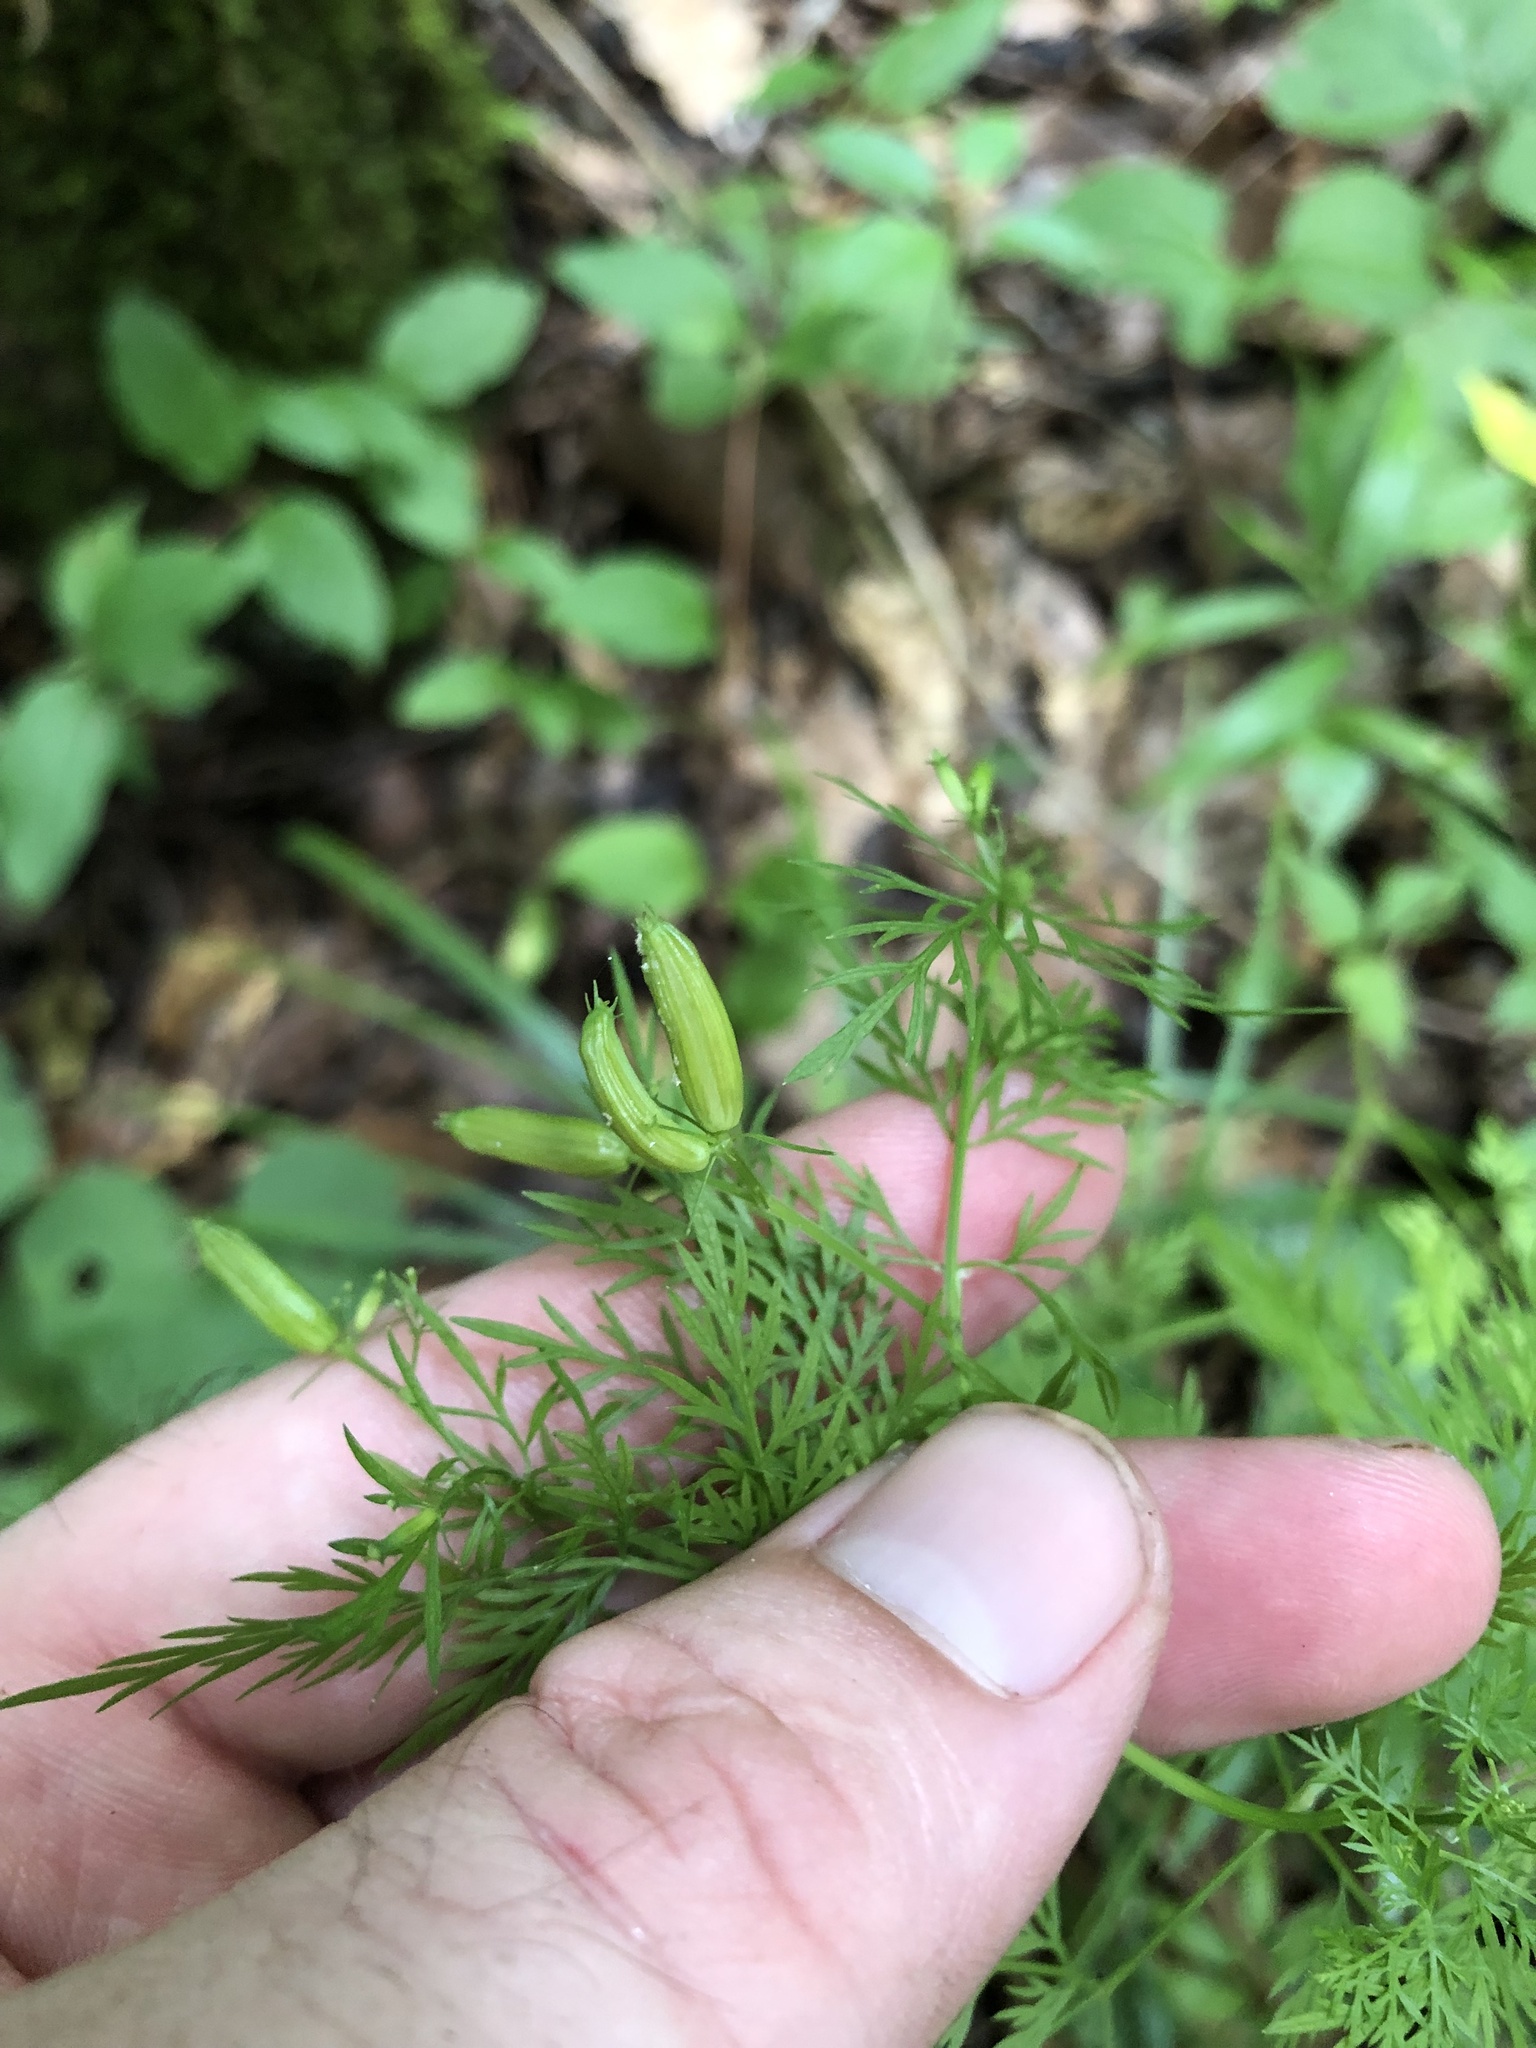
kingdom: Plantae
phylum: Tracheophyta
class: Magnoliopsida
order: Apiales
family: Apiaceae
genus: Trepocarpus
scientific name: Trepocarpus aethusae
